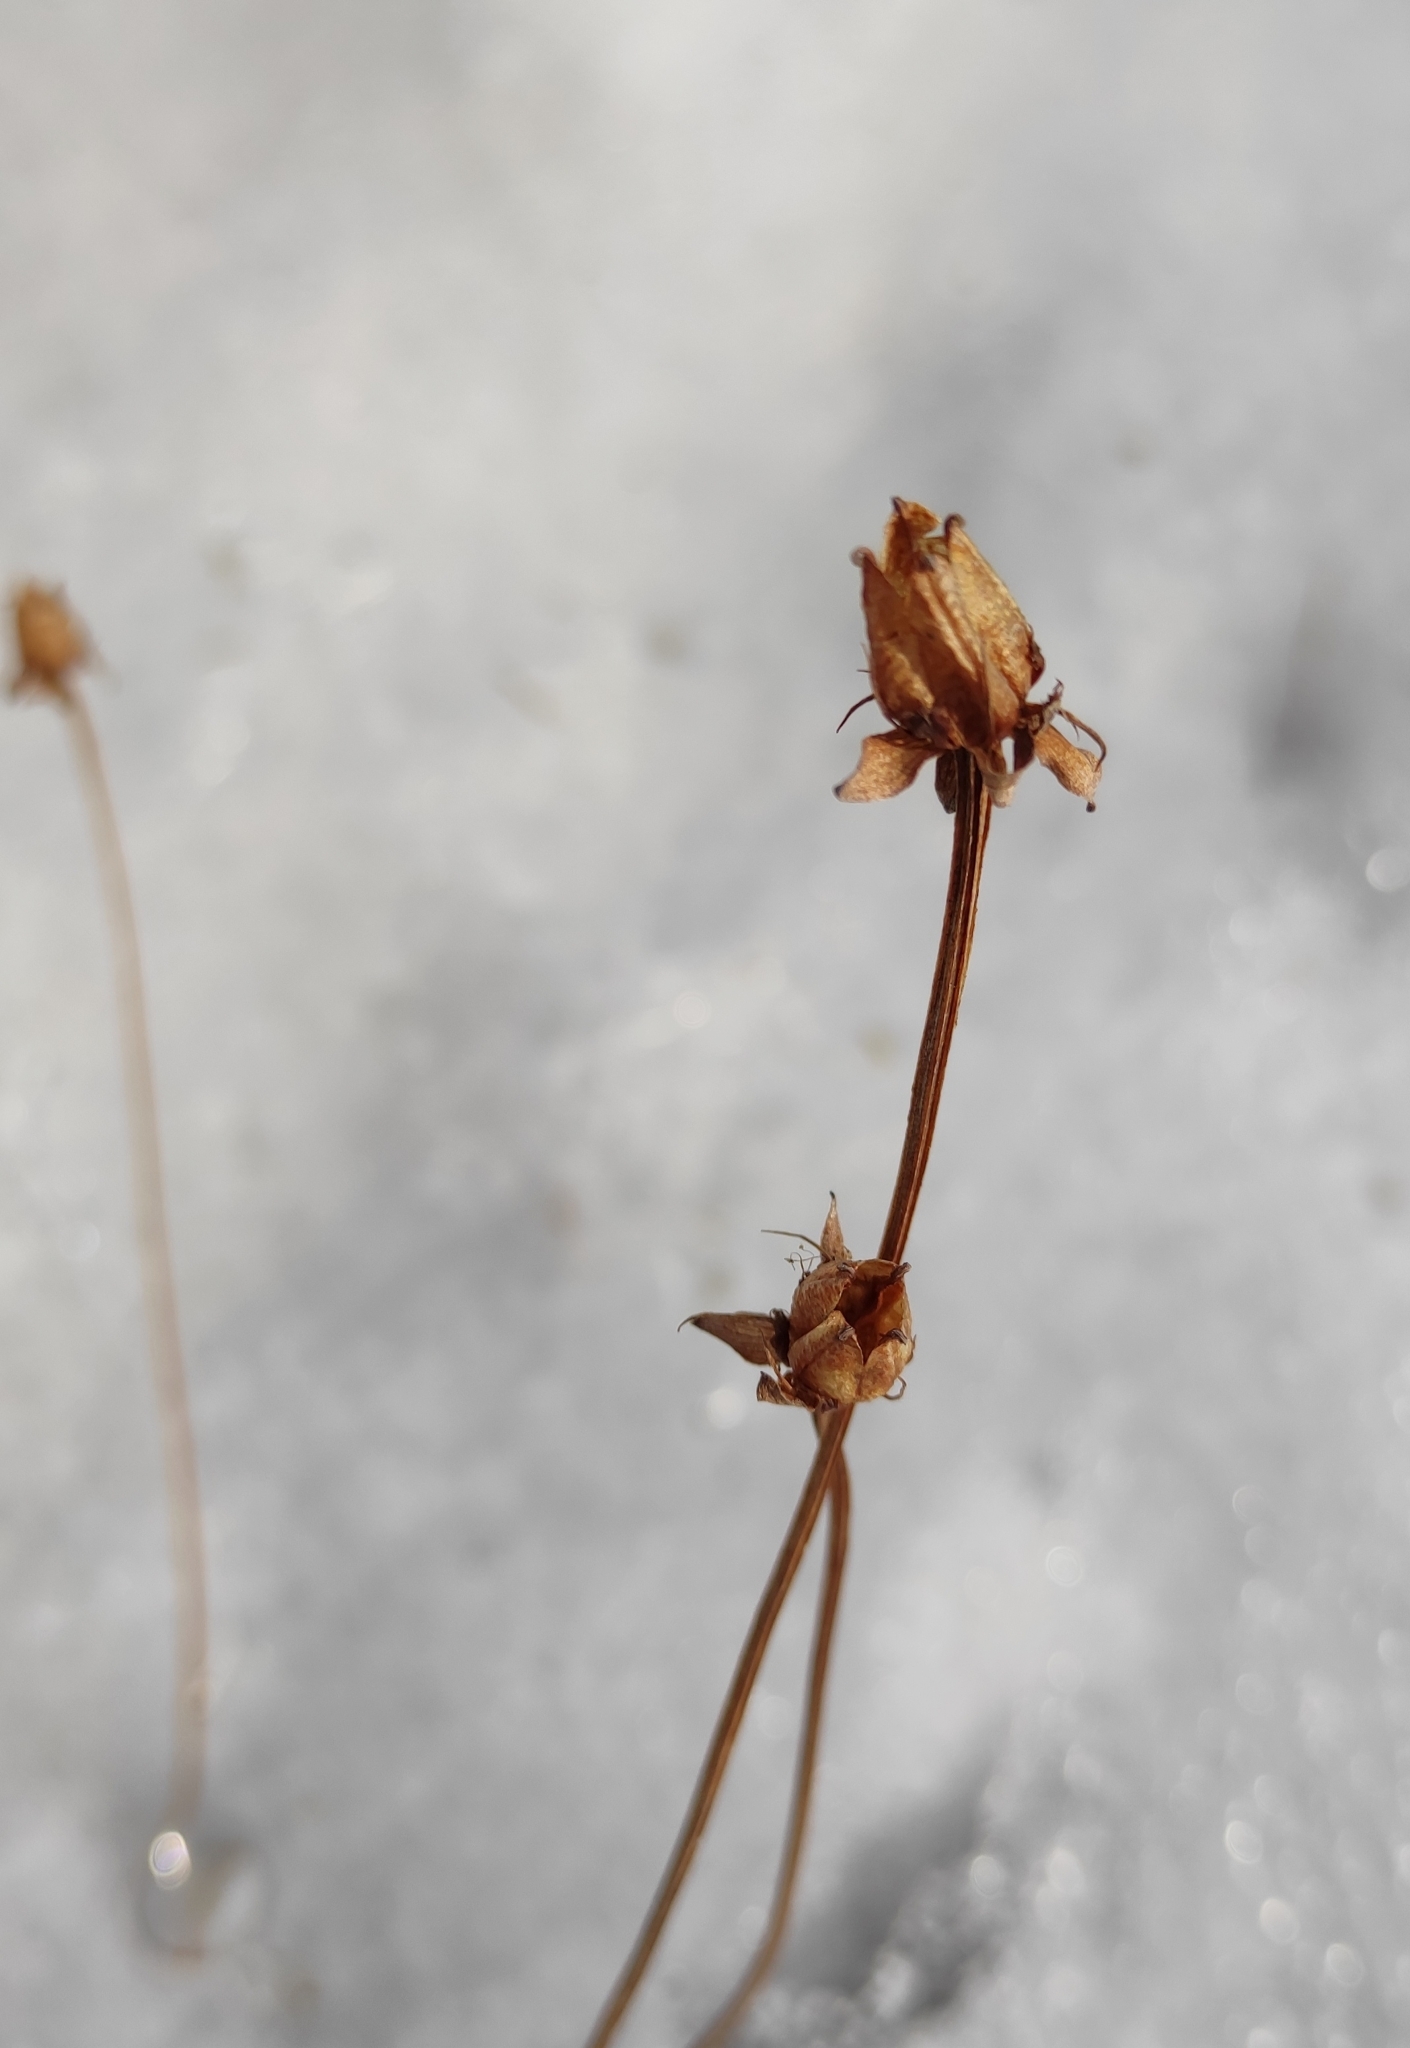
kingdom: Plantae
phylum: Tracheophyta
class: Magnoliopsida
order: Celastrales
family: Parnassiaceae
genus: Parnassia
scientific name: Parnassia palustris
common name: Grass-of-parnassus
